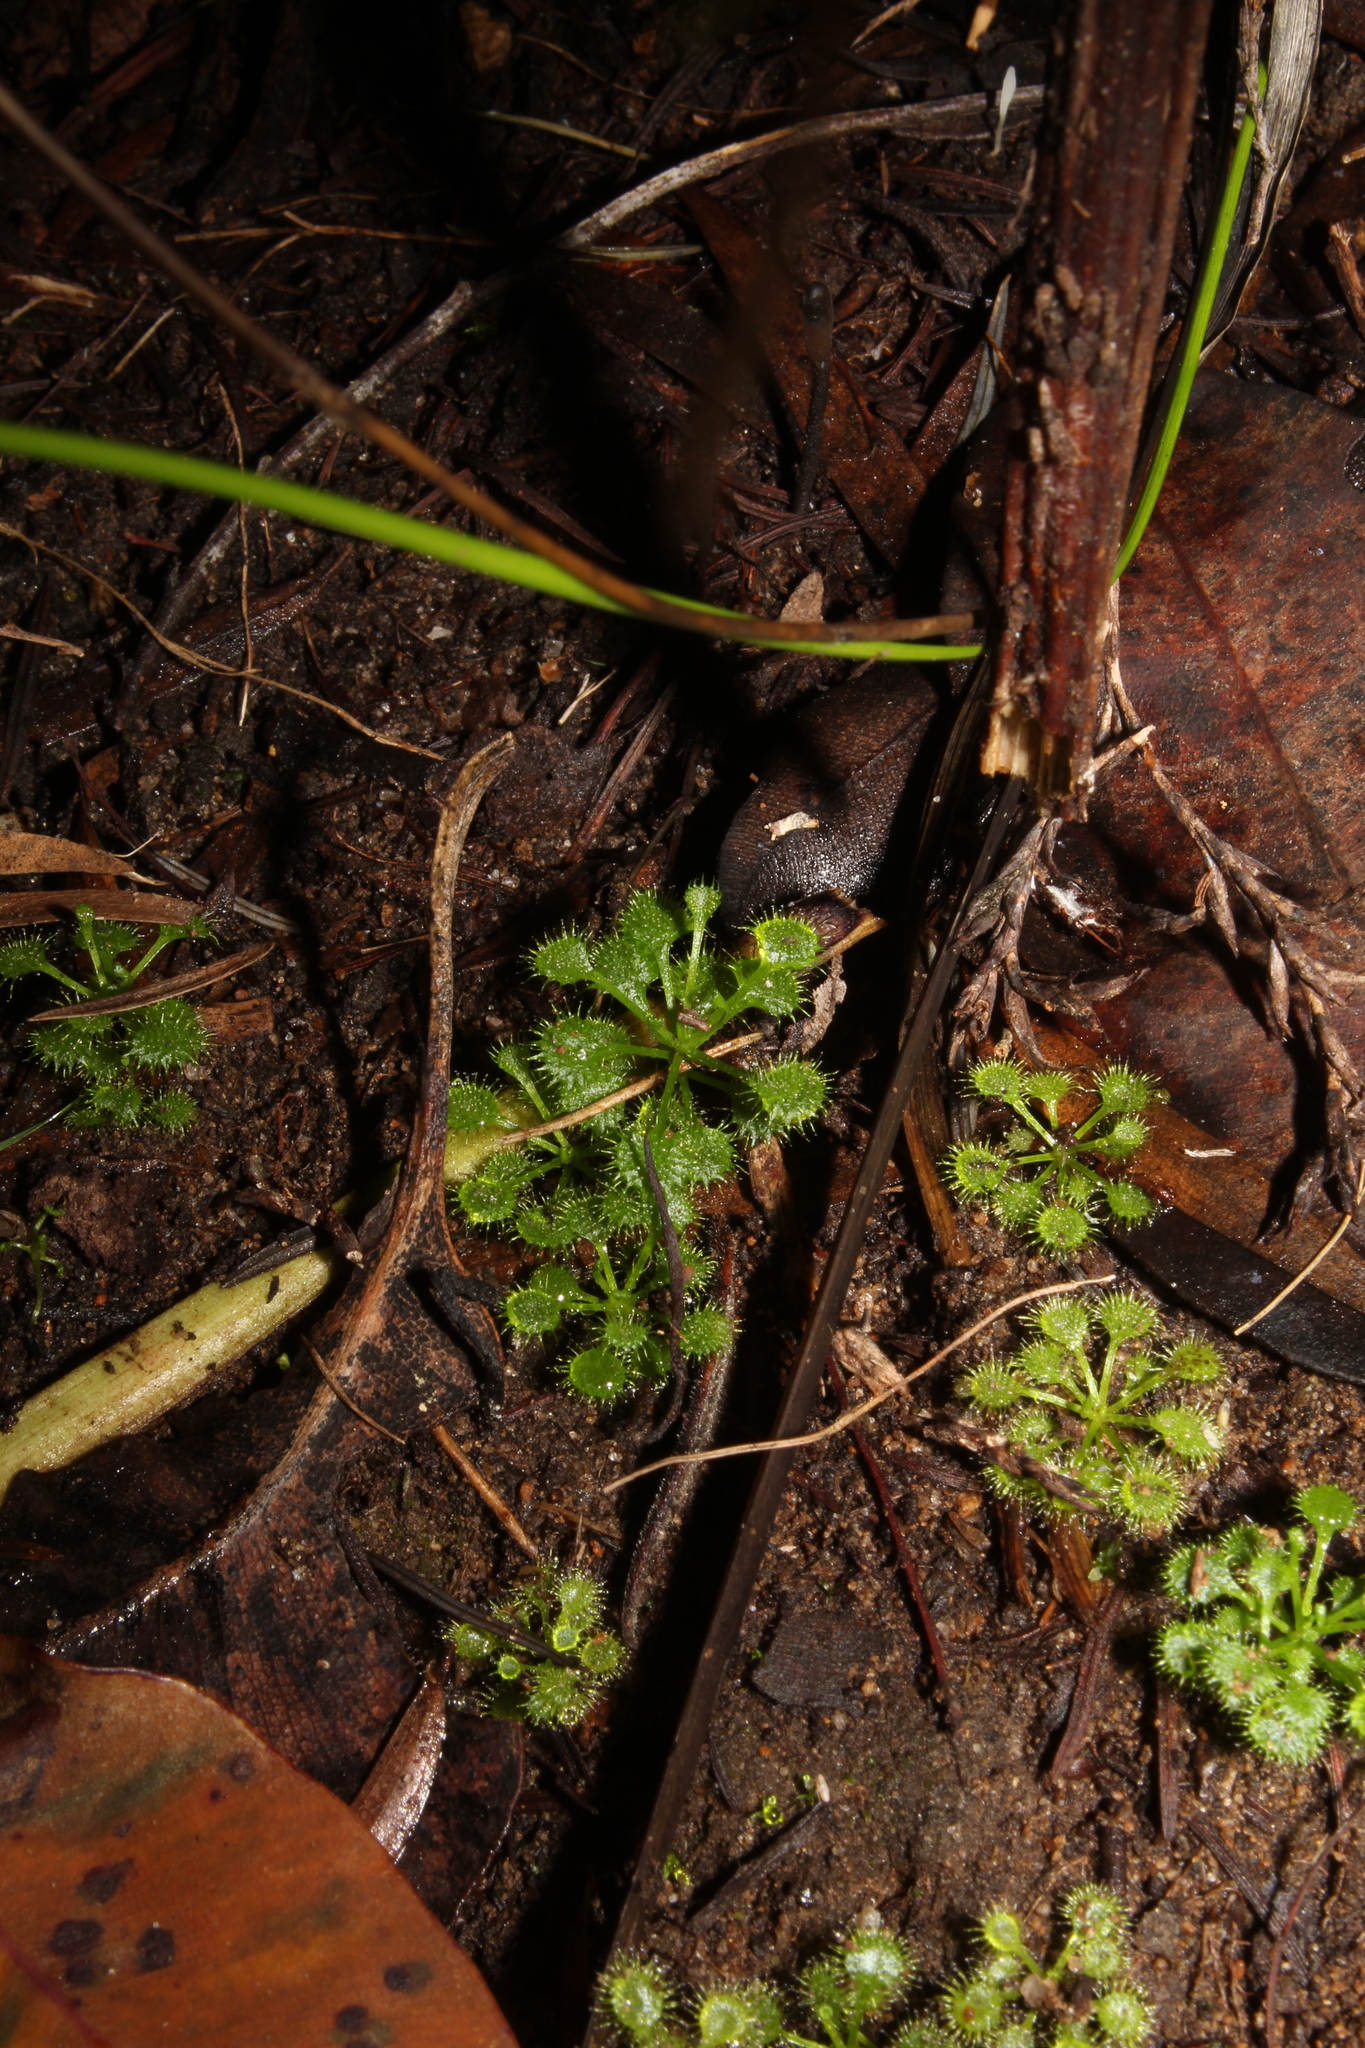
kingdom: Plantae
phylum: Tracheophyta
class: Magnoliopsida
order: Caryophyllales
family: Droseraceae
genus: Drosera
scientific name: Drosera modesta
